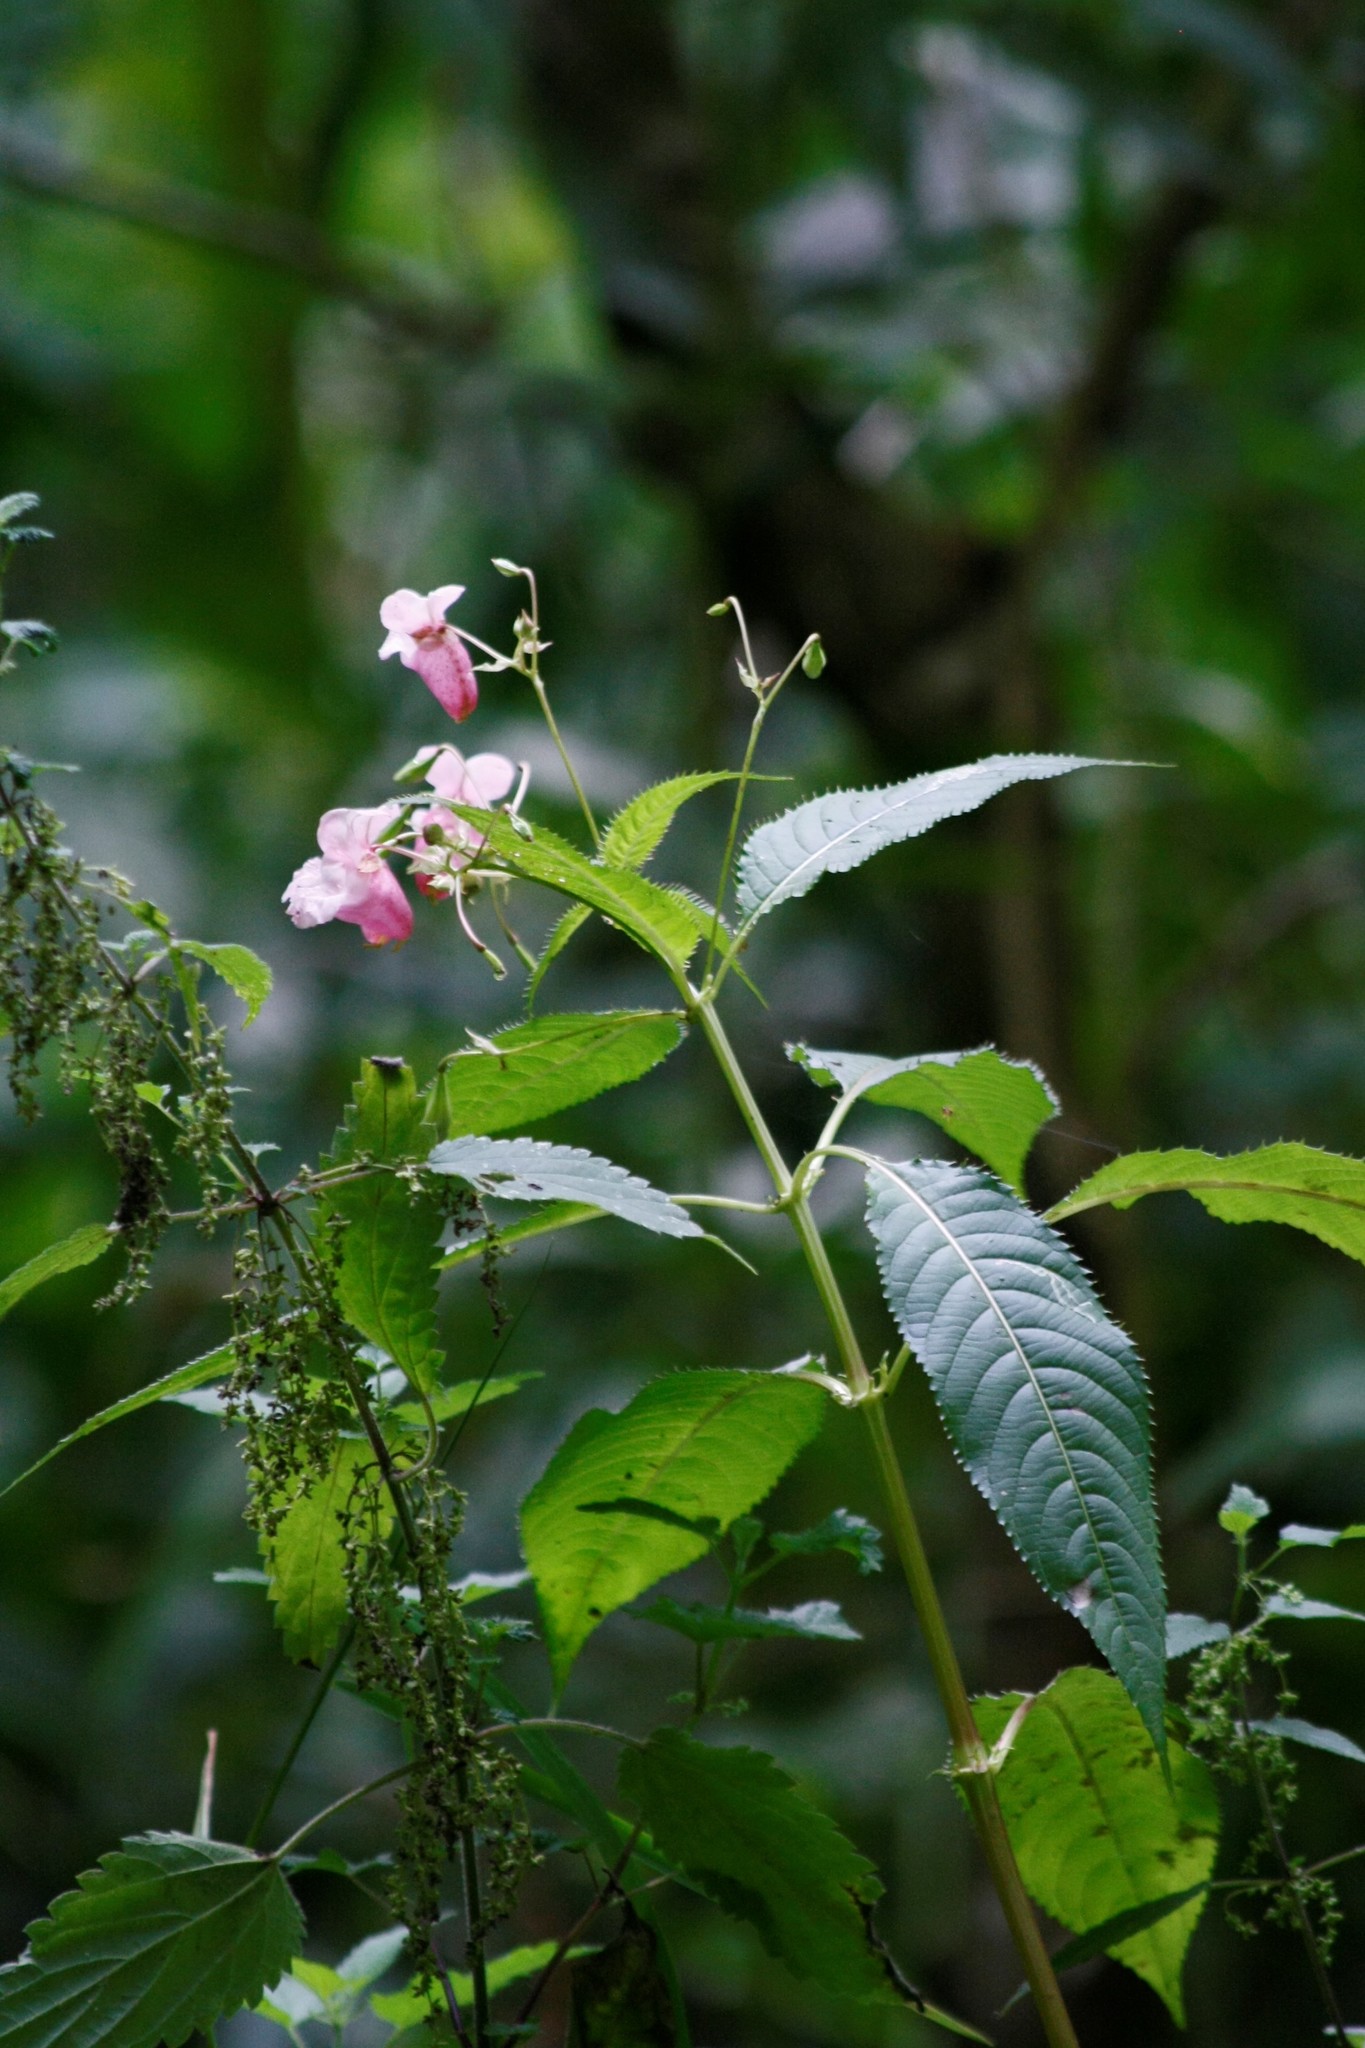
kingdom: Plantae
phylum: Tracheophyta
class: Magnoliopsida
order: Ericales
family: Balsaminaceae
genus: Impatiens
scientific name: Impatiens glandulifera
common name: Himalayan balsam
